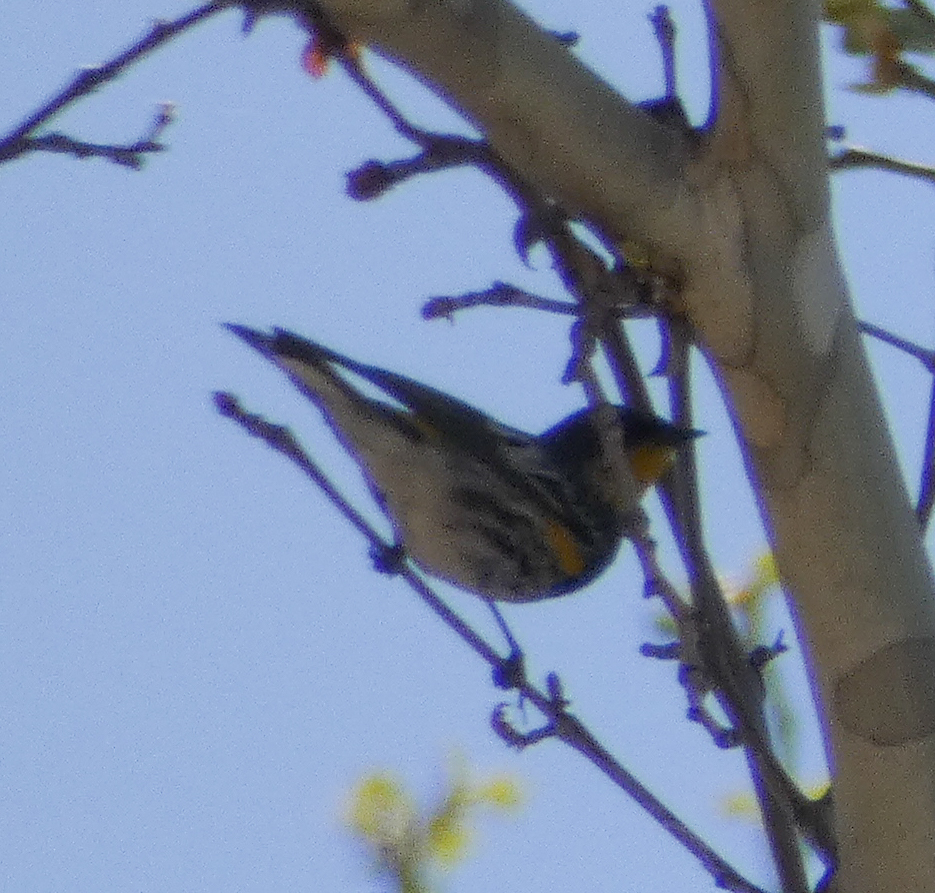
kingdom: Animalia
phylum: Chordata
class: Aves
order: Passeriformes
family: Parulidae
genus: Setophaga
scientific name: Setophaga coronata
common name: Myrtle warbler
